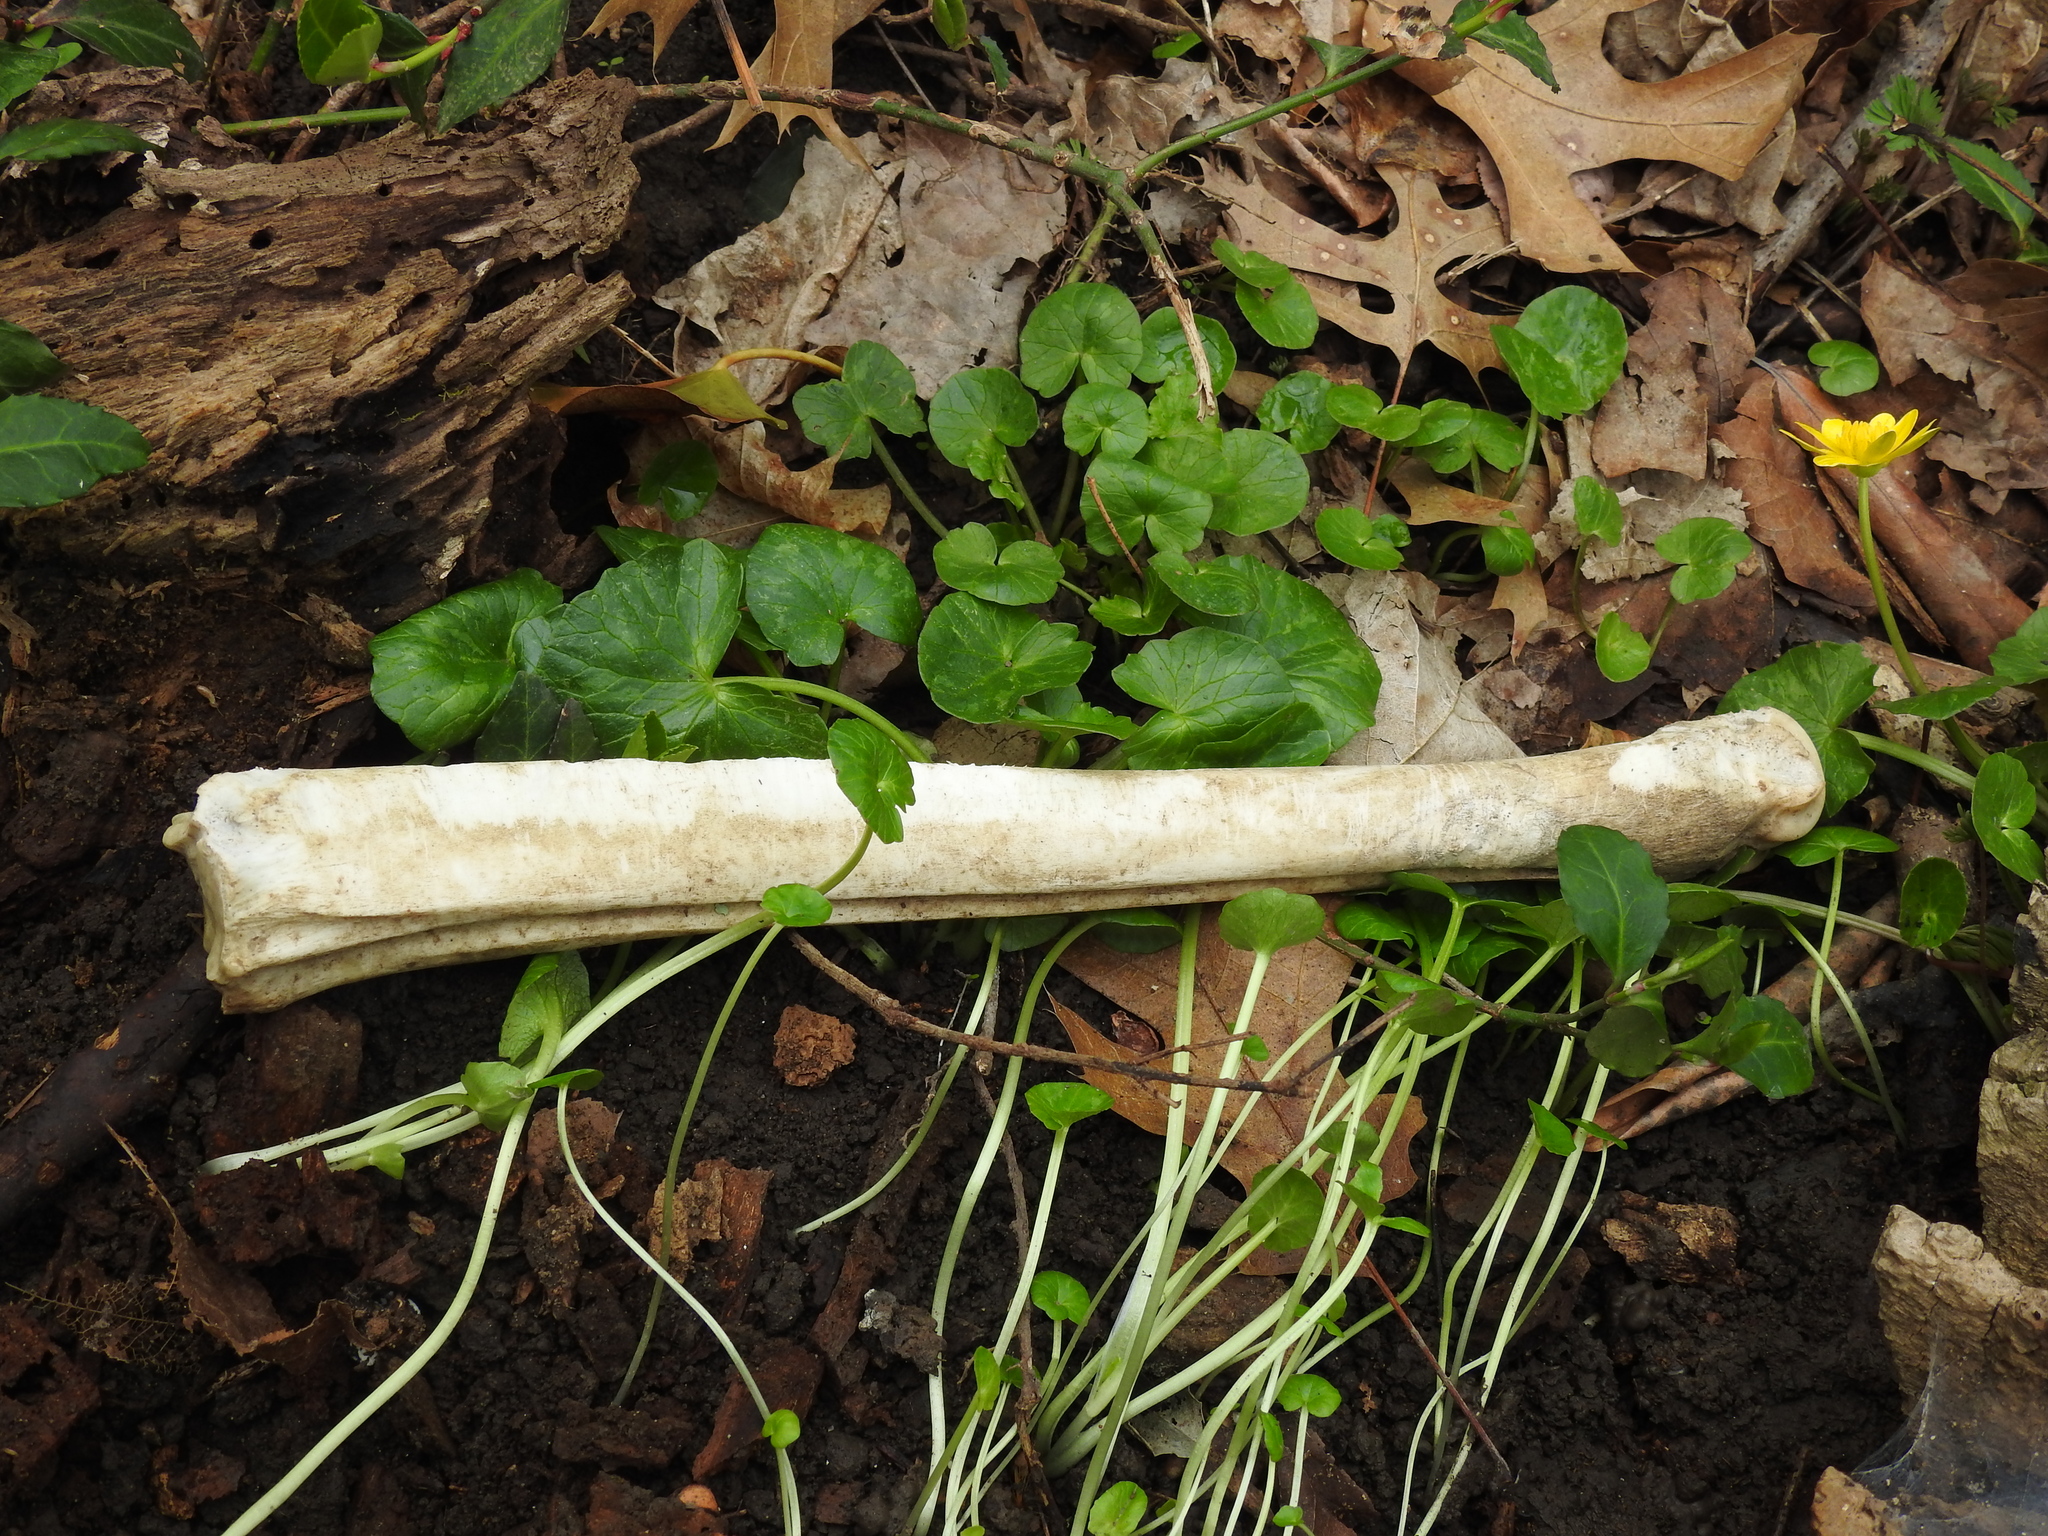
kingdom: Animalia
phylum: Chordata
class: Mammalia
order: Artiodactyla
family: Cervidae
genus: Odocoileus
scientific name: Odocoileus virginianus
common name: White-tailed deer
